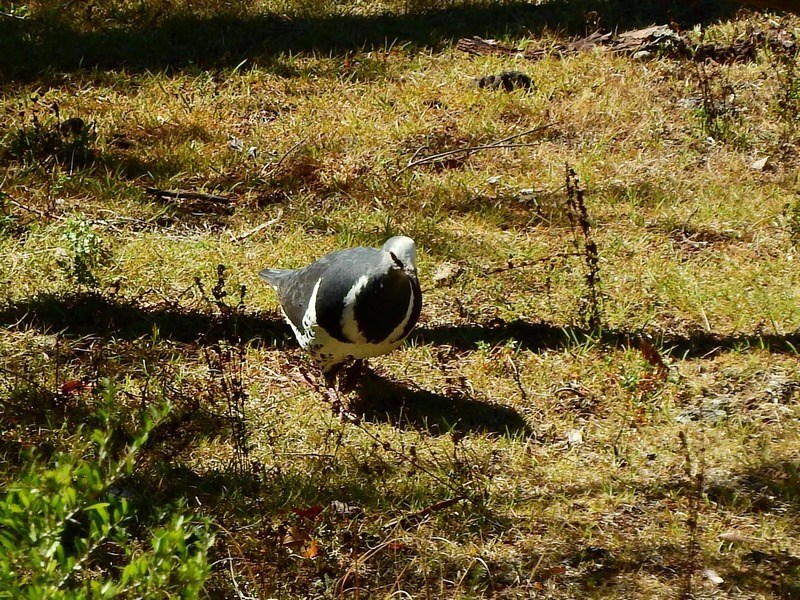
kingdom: Animalia
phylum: Chordata
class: Aves
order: Columbiformes
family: Columbidae
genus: Leucosarcia
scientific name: Leucosarcia melanoleuca
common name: Wonga pigeon
